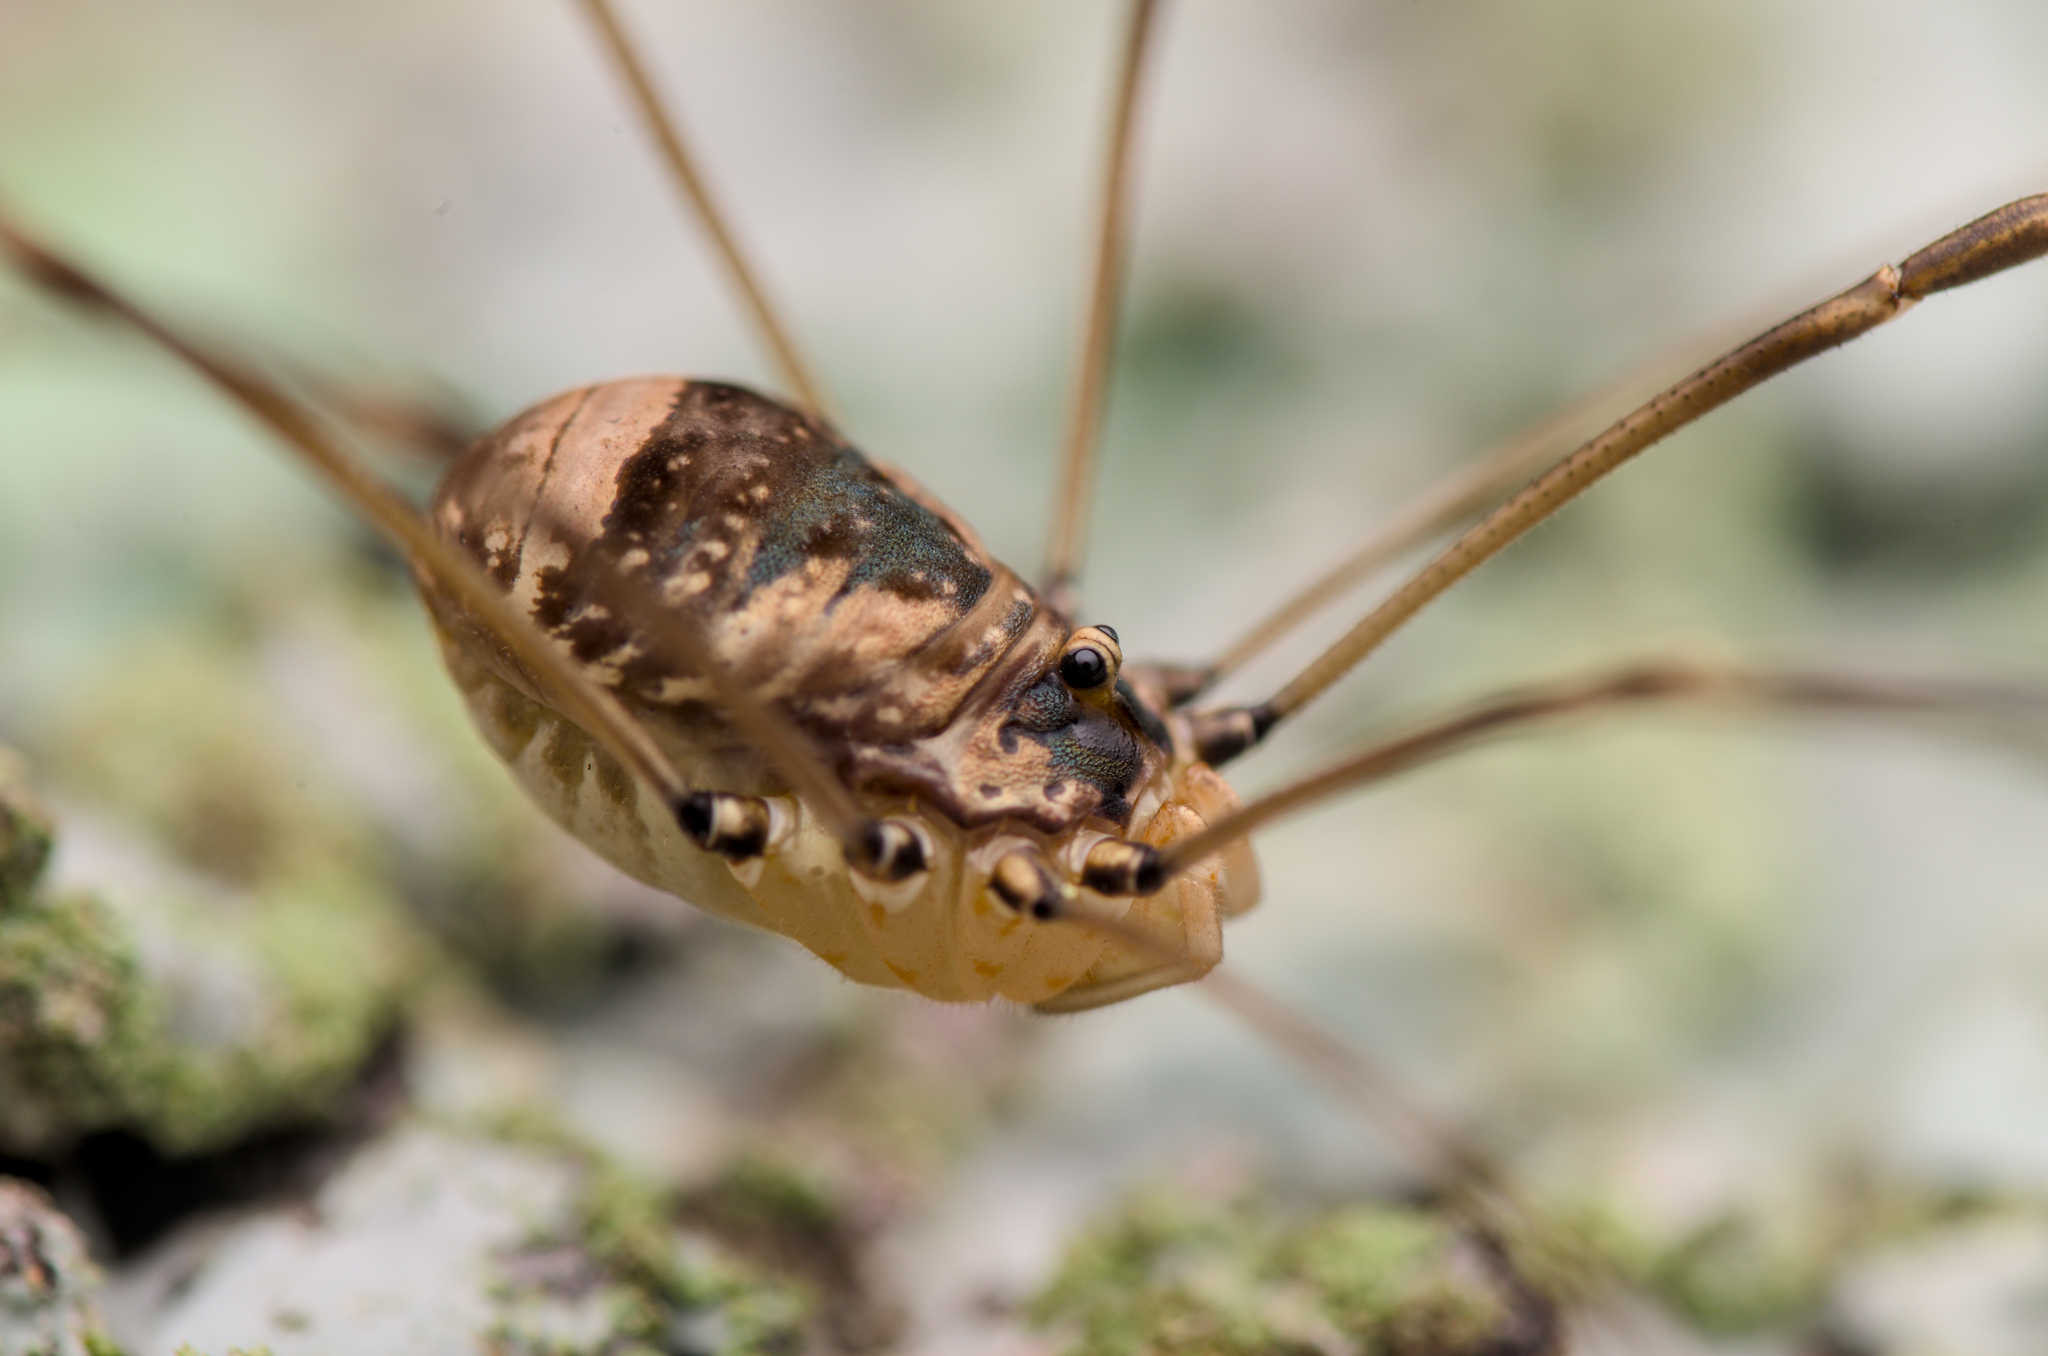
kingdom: Animalia
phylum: Arthropoda
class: Arachnida
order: Opiliones
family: Sclerosomatidae
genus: Leiobunum
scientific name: Leiobunum blackwalli
